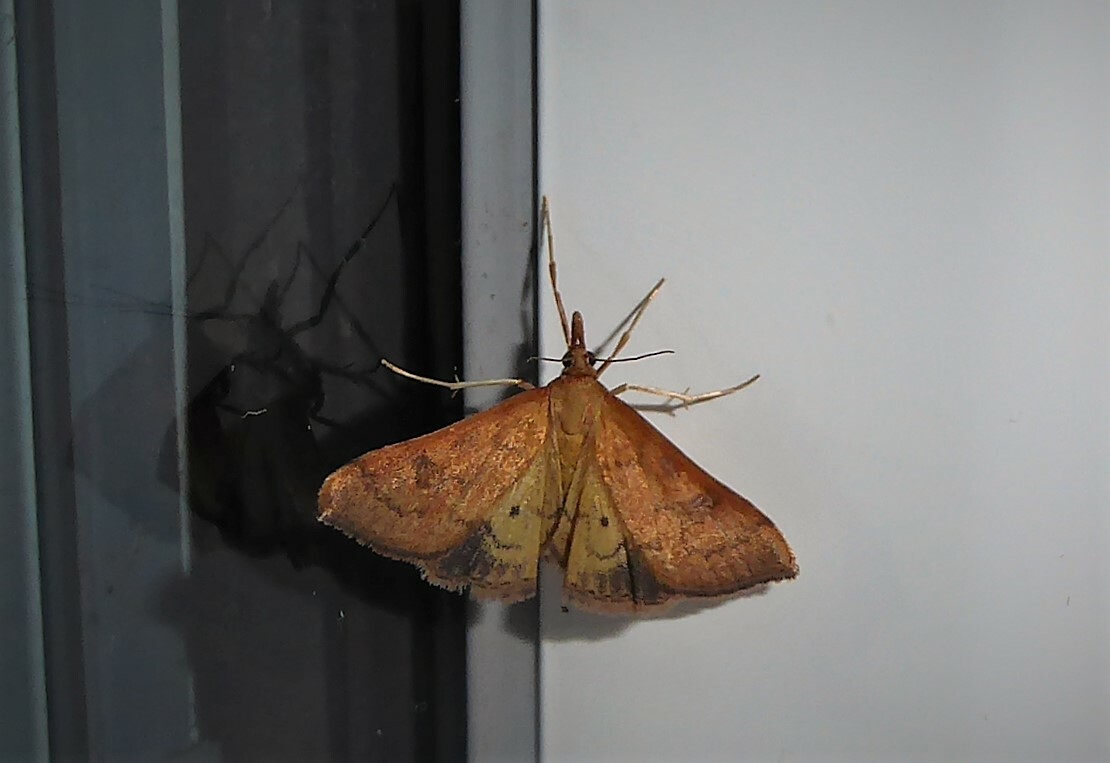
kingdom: Animalia
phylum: Arthropoda
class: Insecta
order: Lepidoptera
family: Crambidae
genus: Udea
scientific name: Udea Mnesictena flavidalis
